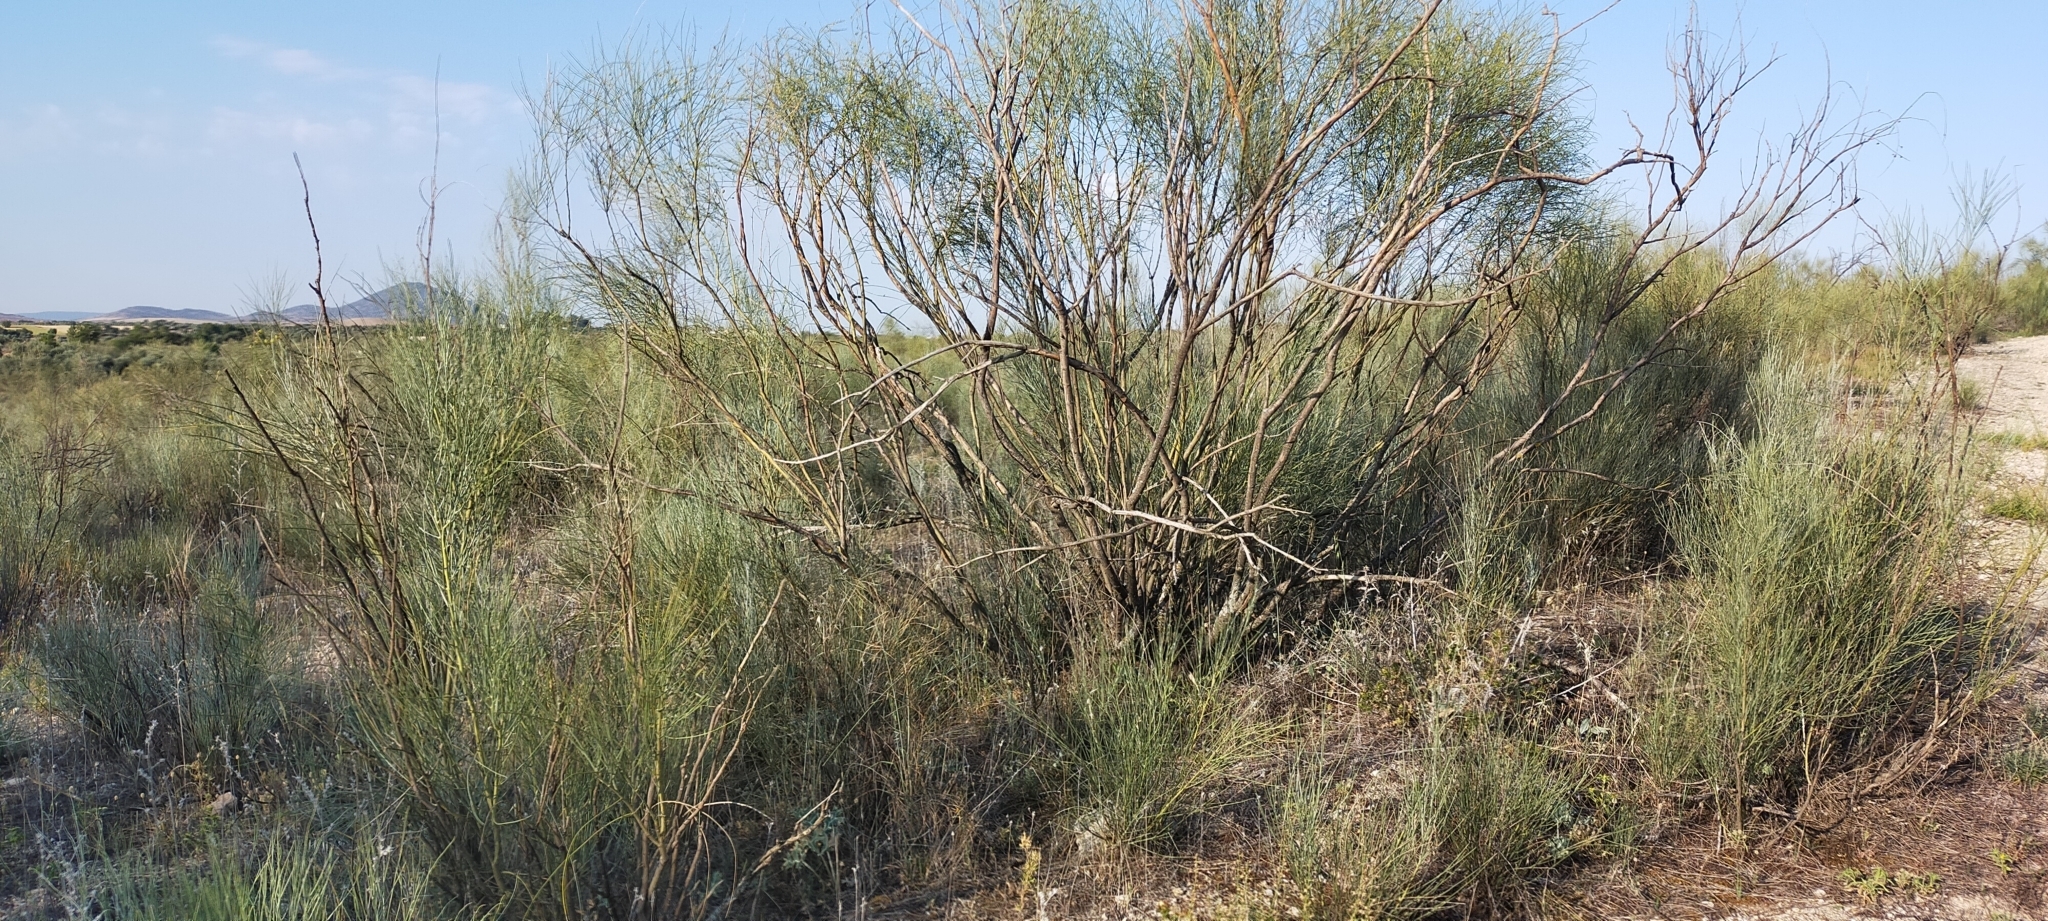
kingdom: Plantae
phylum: Tracheophyta
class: Magnoliopsida
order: Fabales
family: Fabaceae
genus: Retama
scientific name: Retama sphaerocarpa
